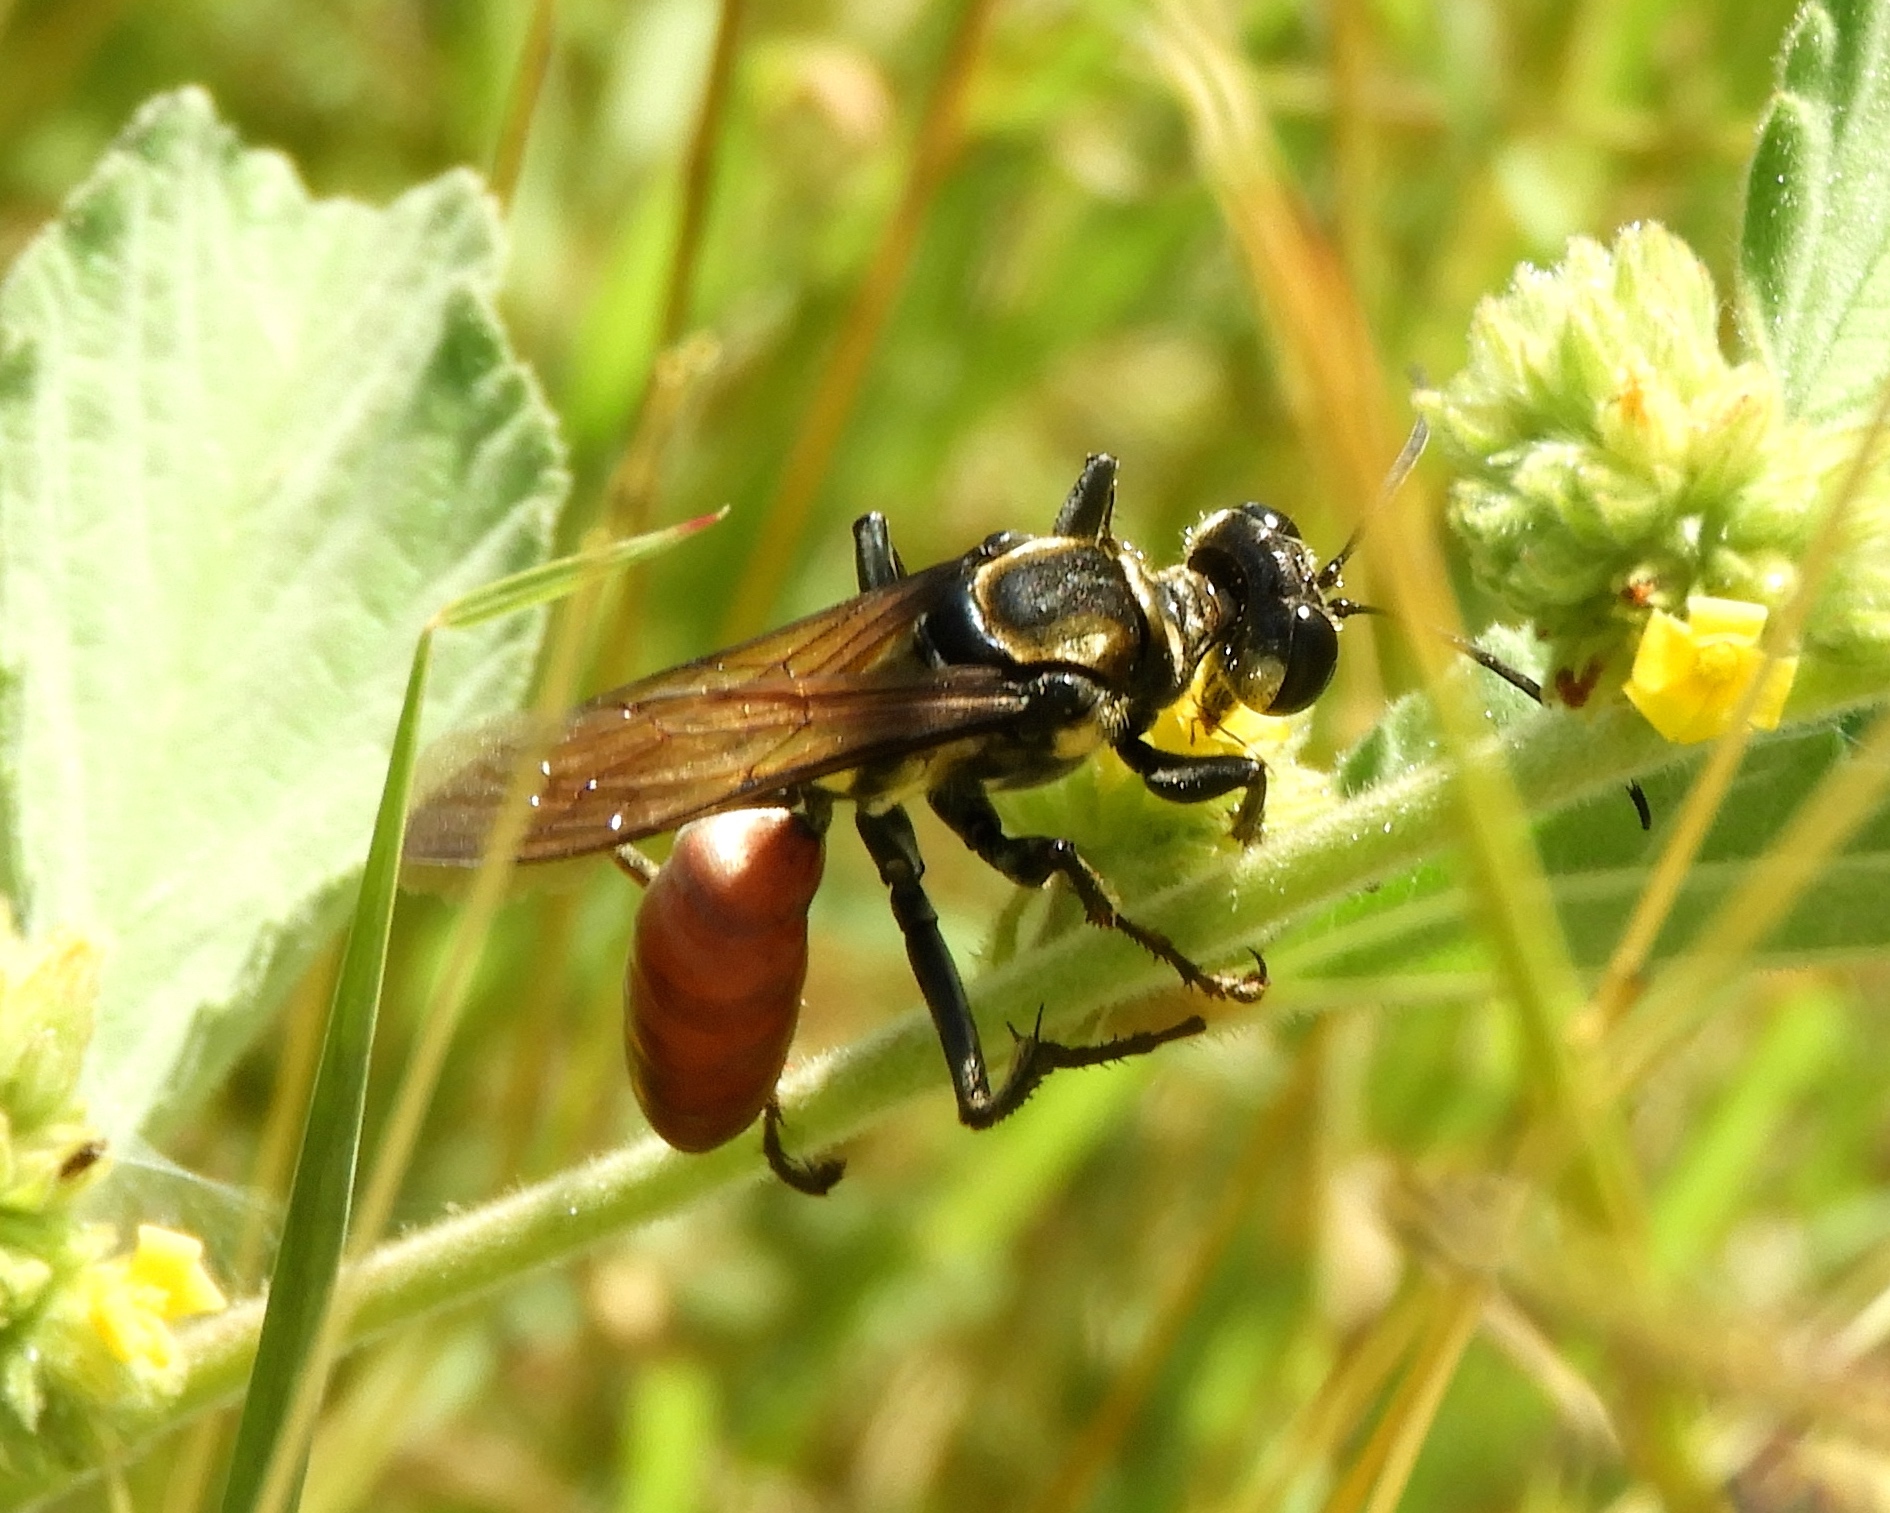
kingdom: Animalia
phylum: Arthropoda
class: Insecta
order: Hymenoptera
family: Sphecidae
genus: Sphex
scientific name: Sphex habenus
